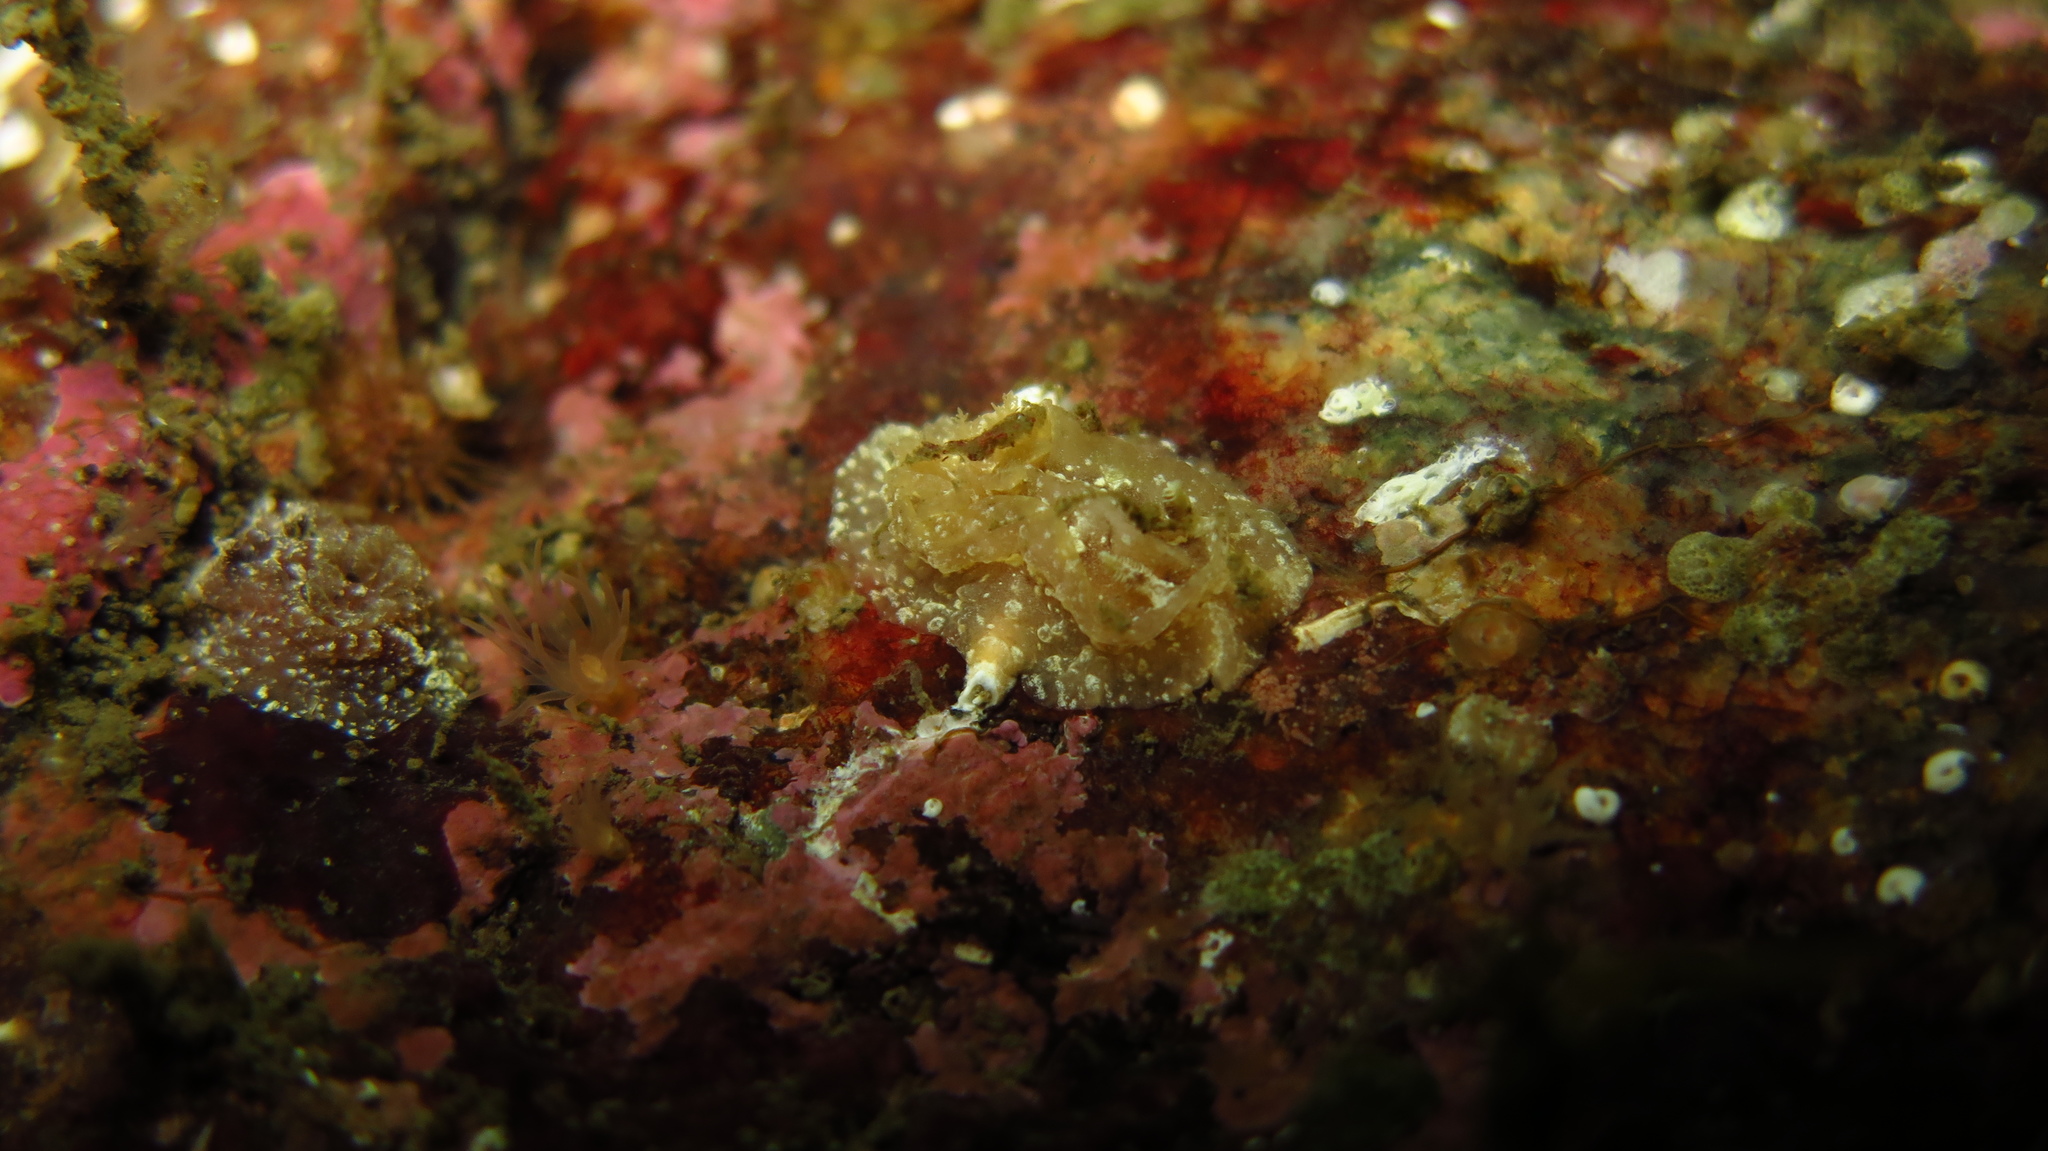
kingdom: Animalia
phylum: Mollusca
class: Gastropoda
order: Nudibranchia
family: Goniodorididae
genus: Pelagella
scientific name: Pelagella castanea
